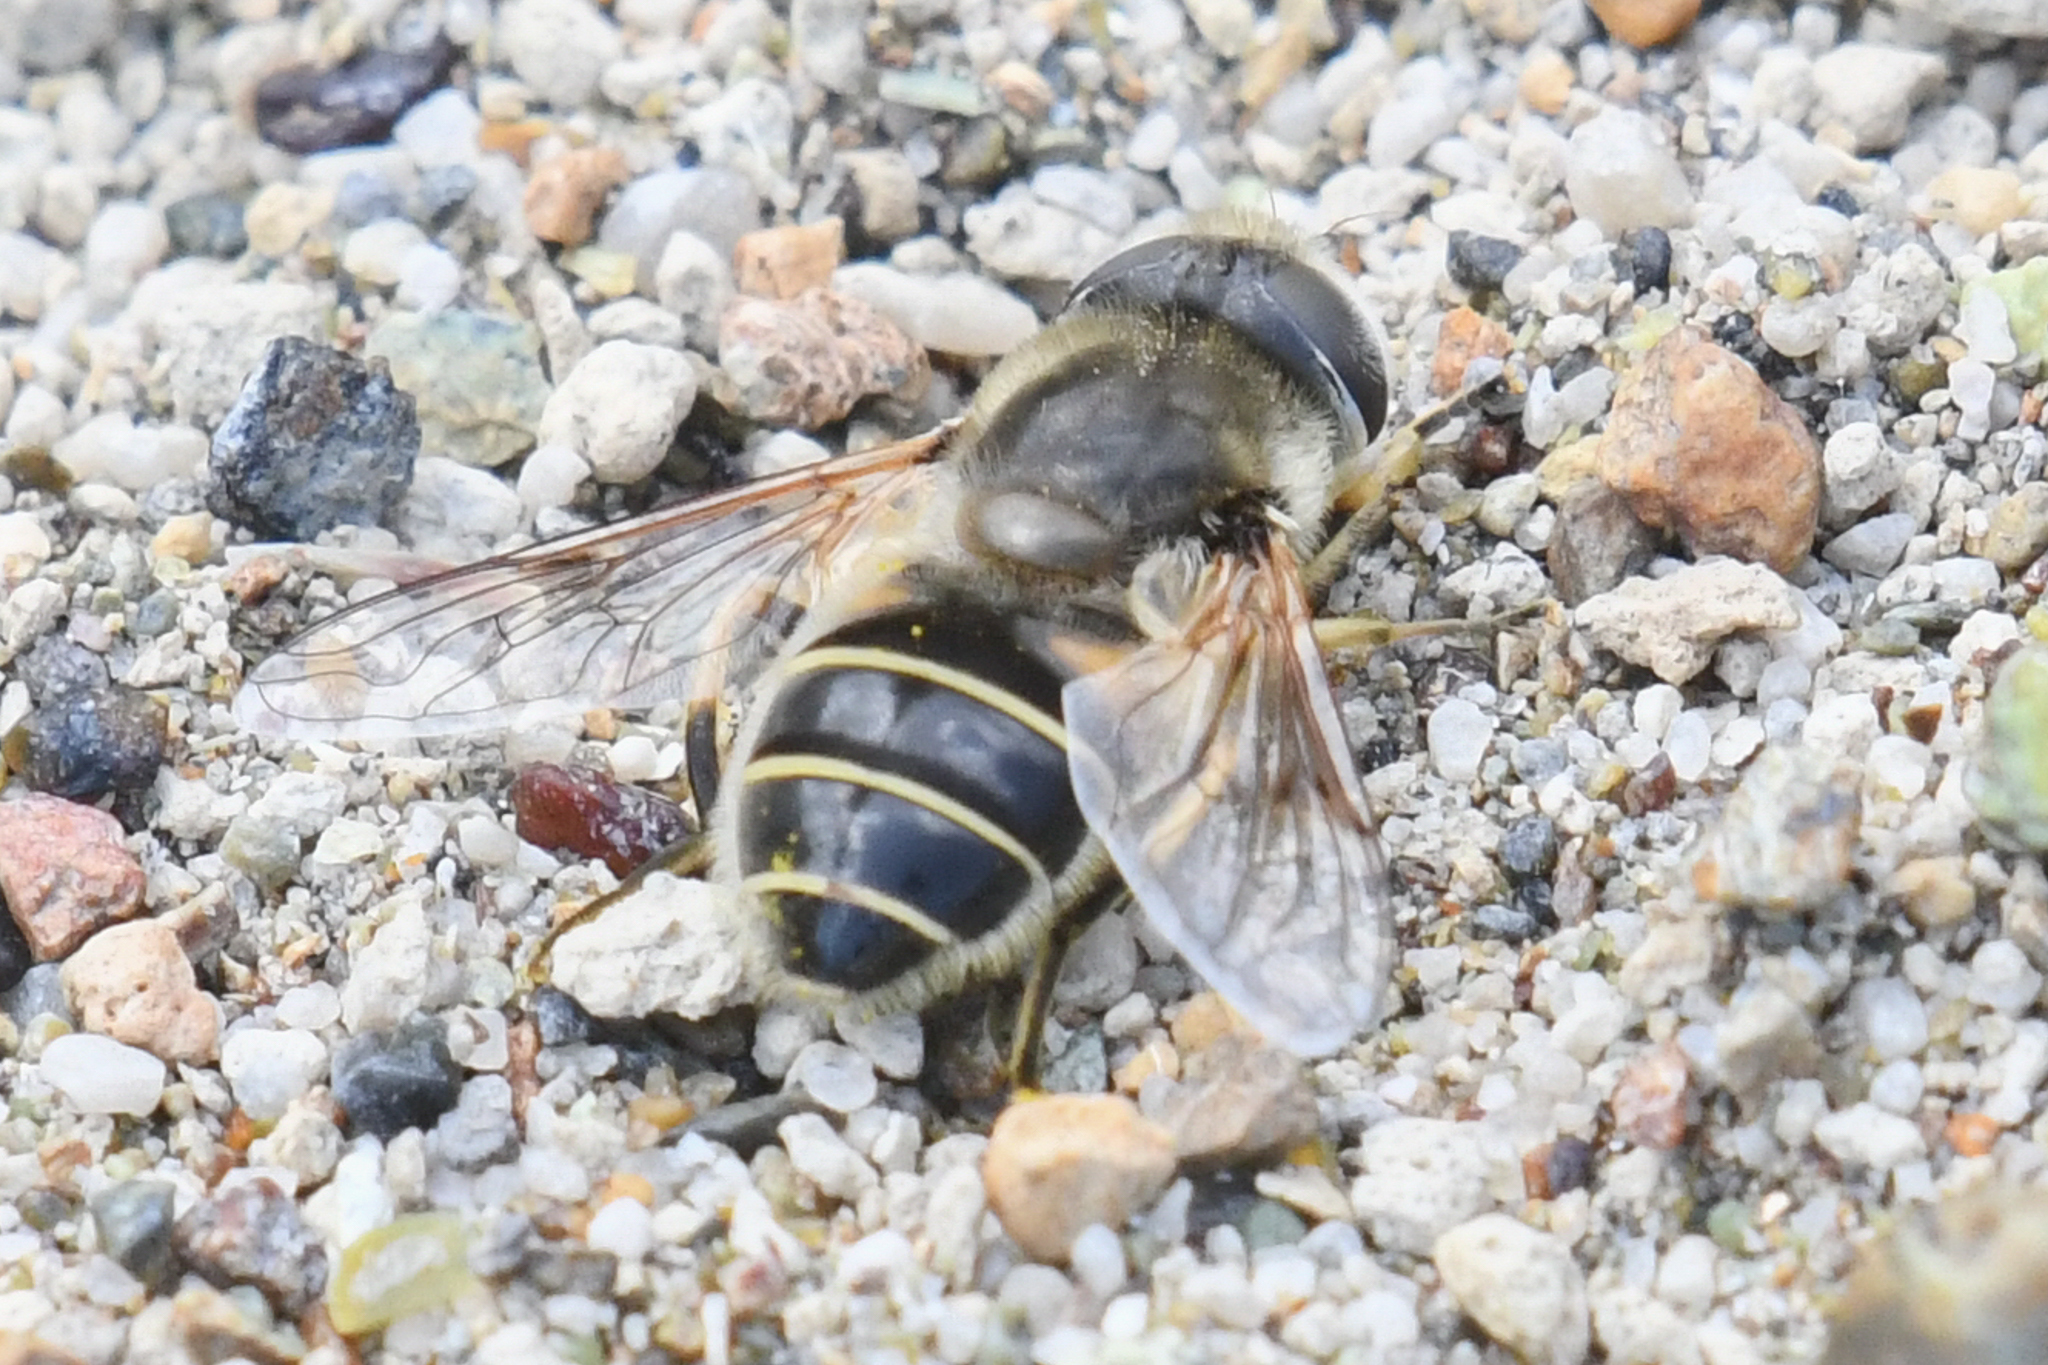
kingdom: Animalia
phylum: Arthropoda
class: Insecta
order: Diptera
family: Syrphidae
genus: Eristalis
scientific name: Eristalis hirta
